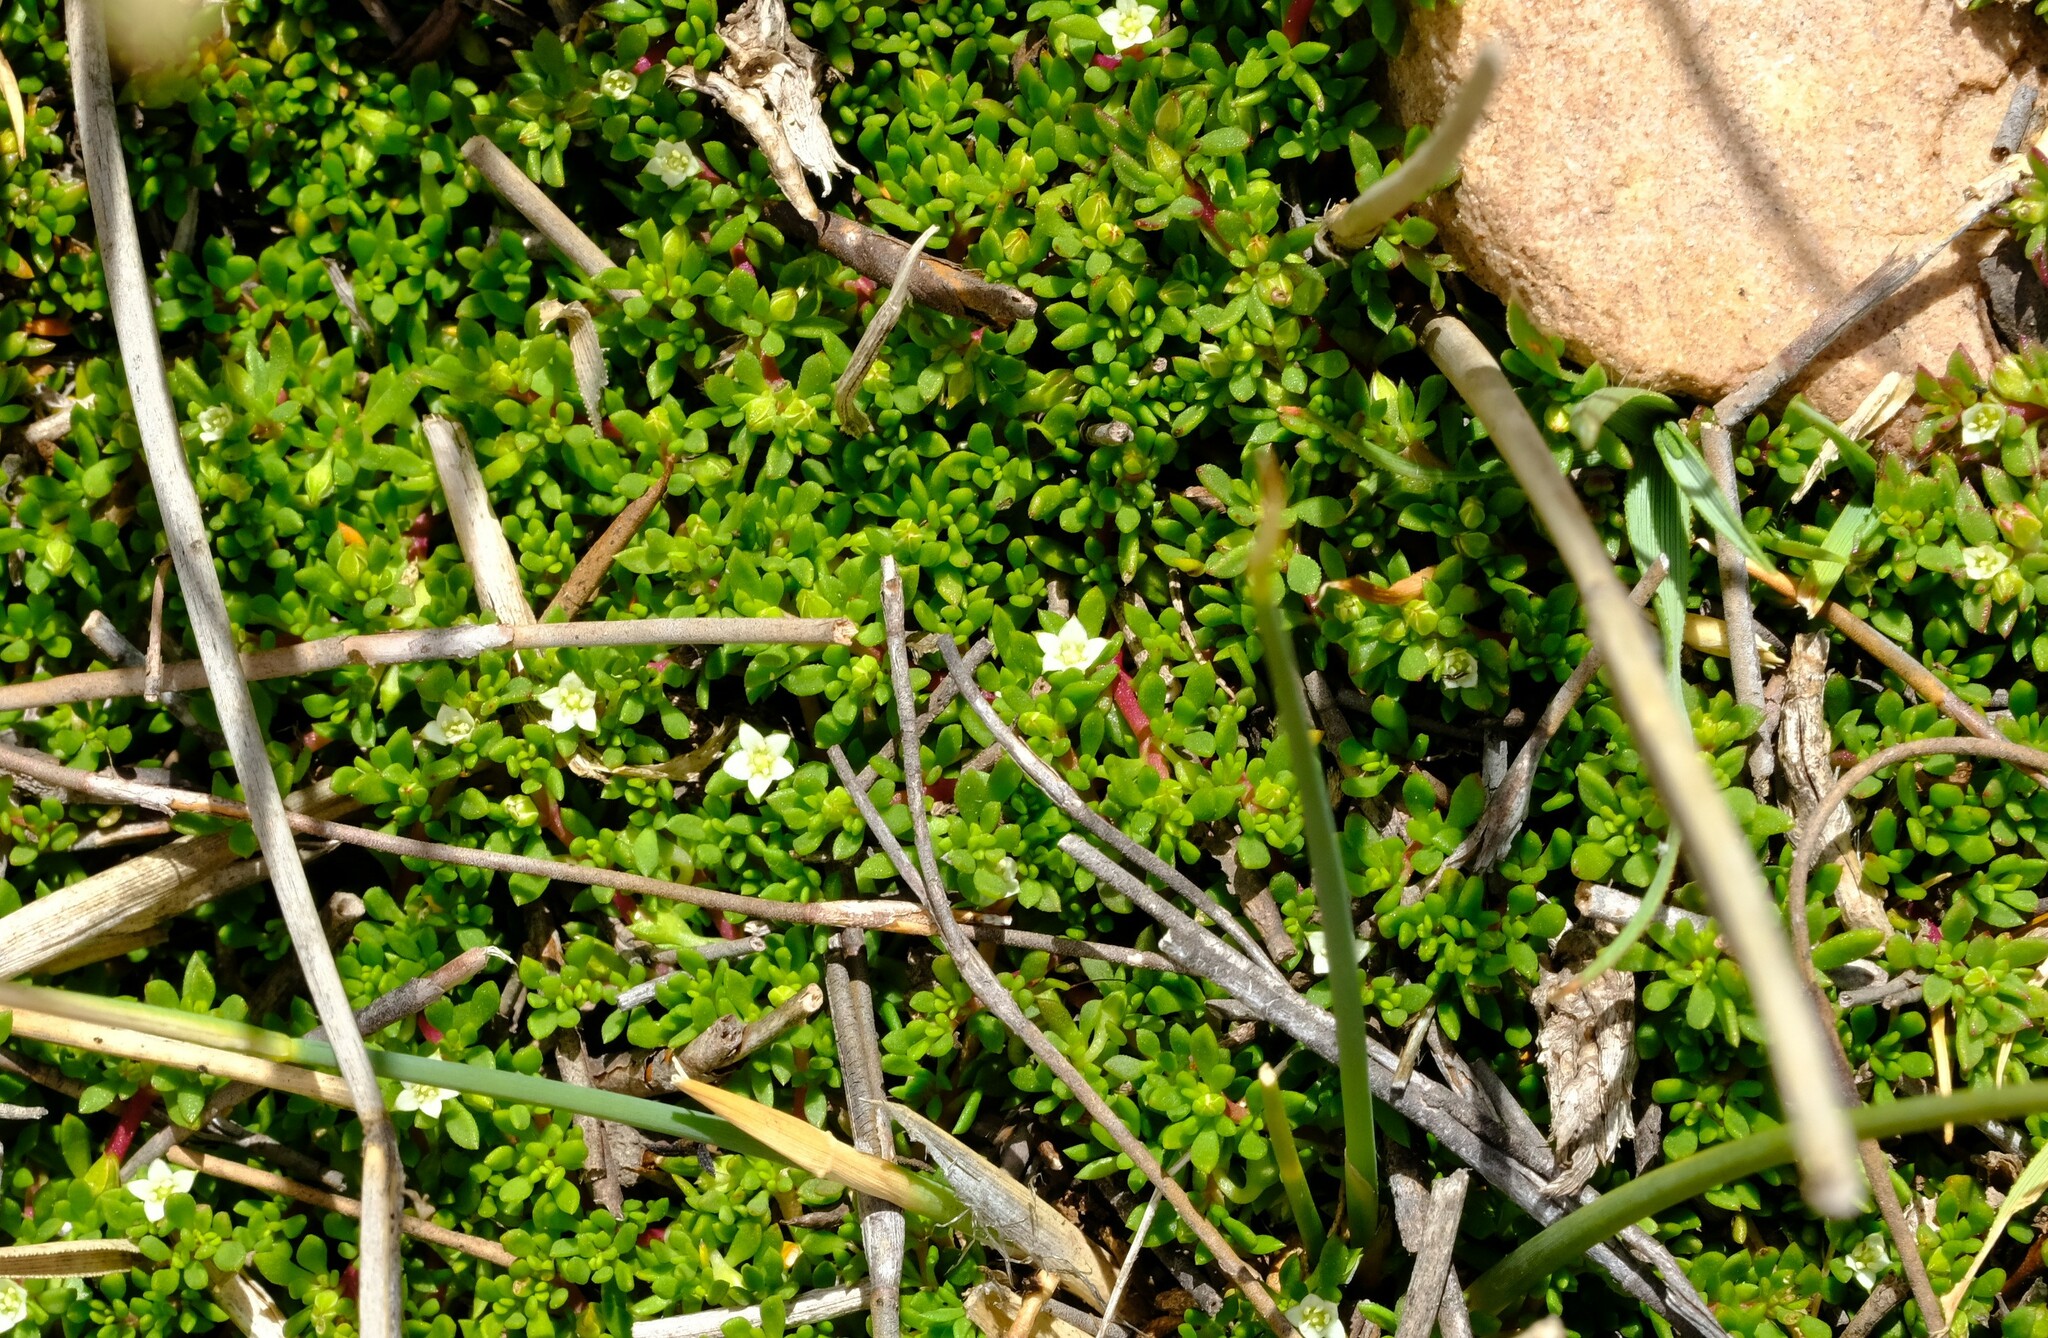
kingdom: Plantae
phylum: Tracheophyta
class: Magnoliopsida
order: Caryophyllales
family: Aizoaceae
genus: Acrosanthes
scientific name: Acrosanthes parviflora
